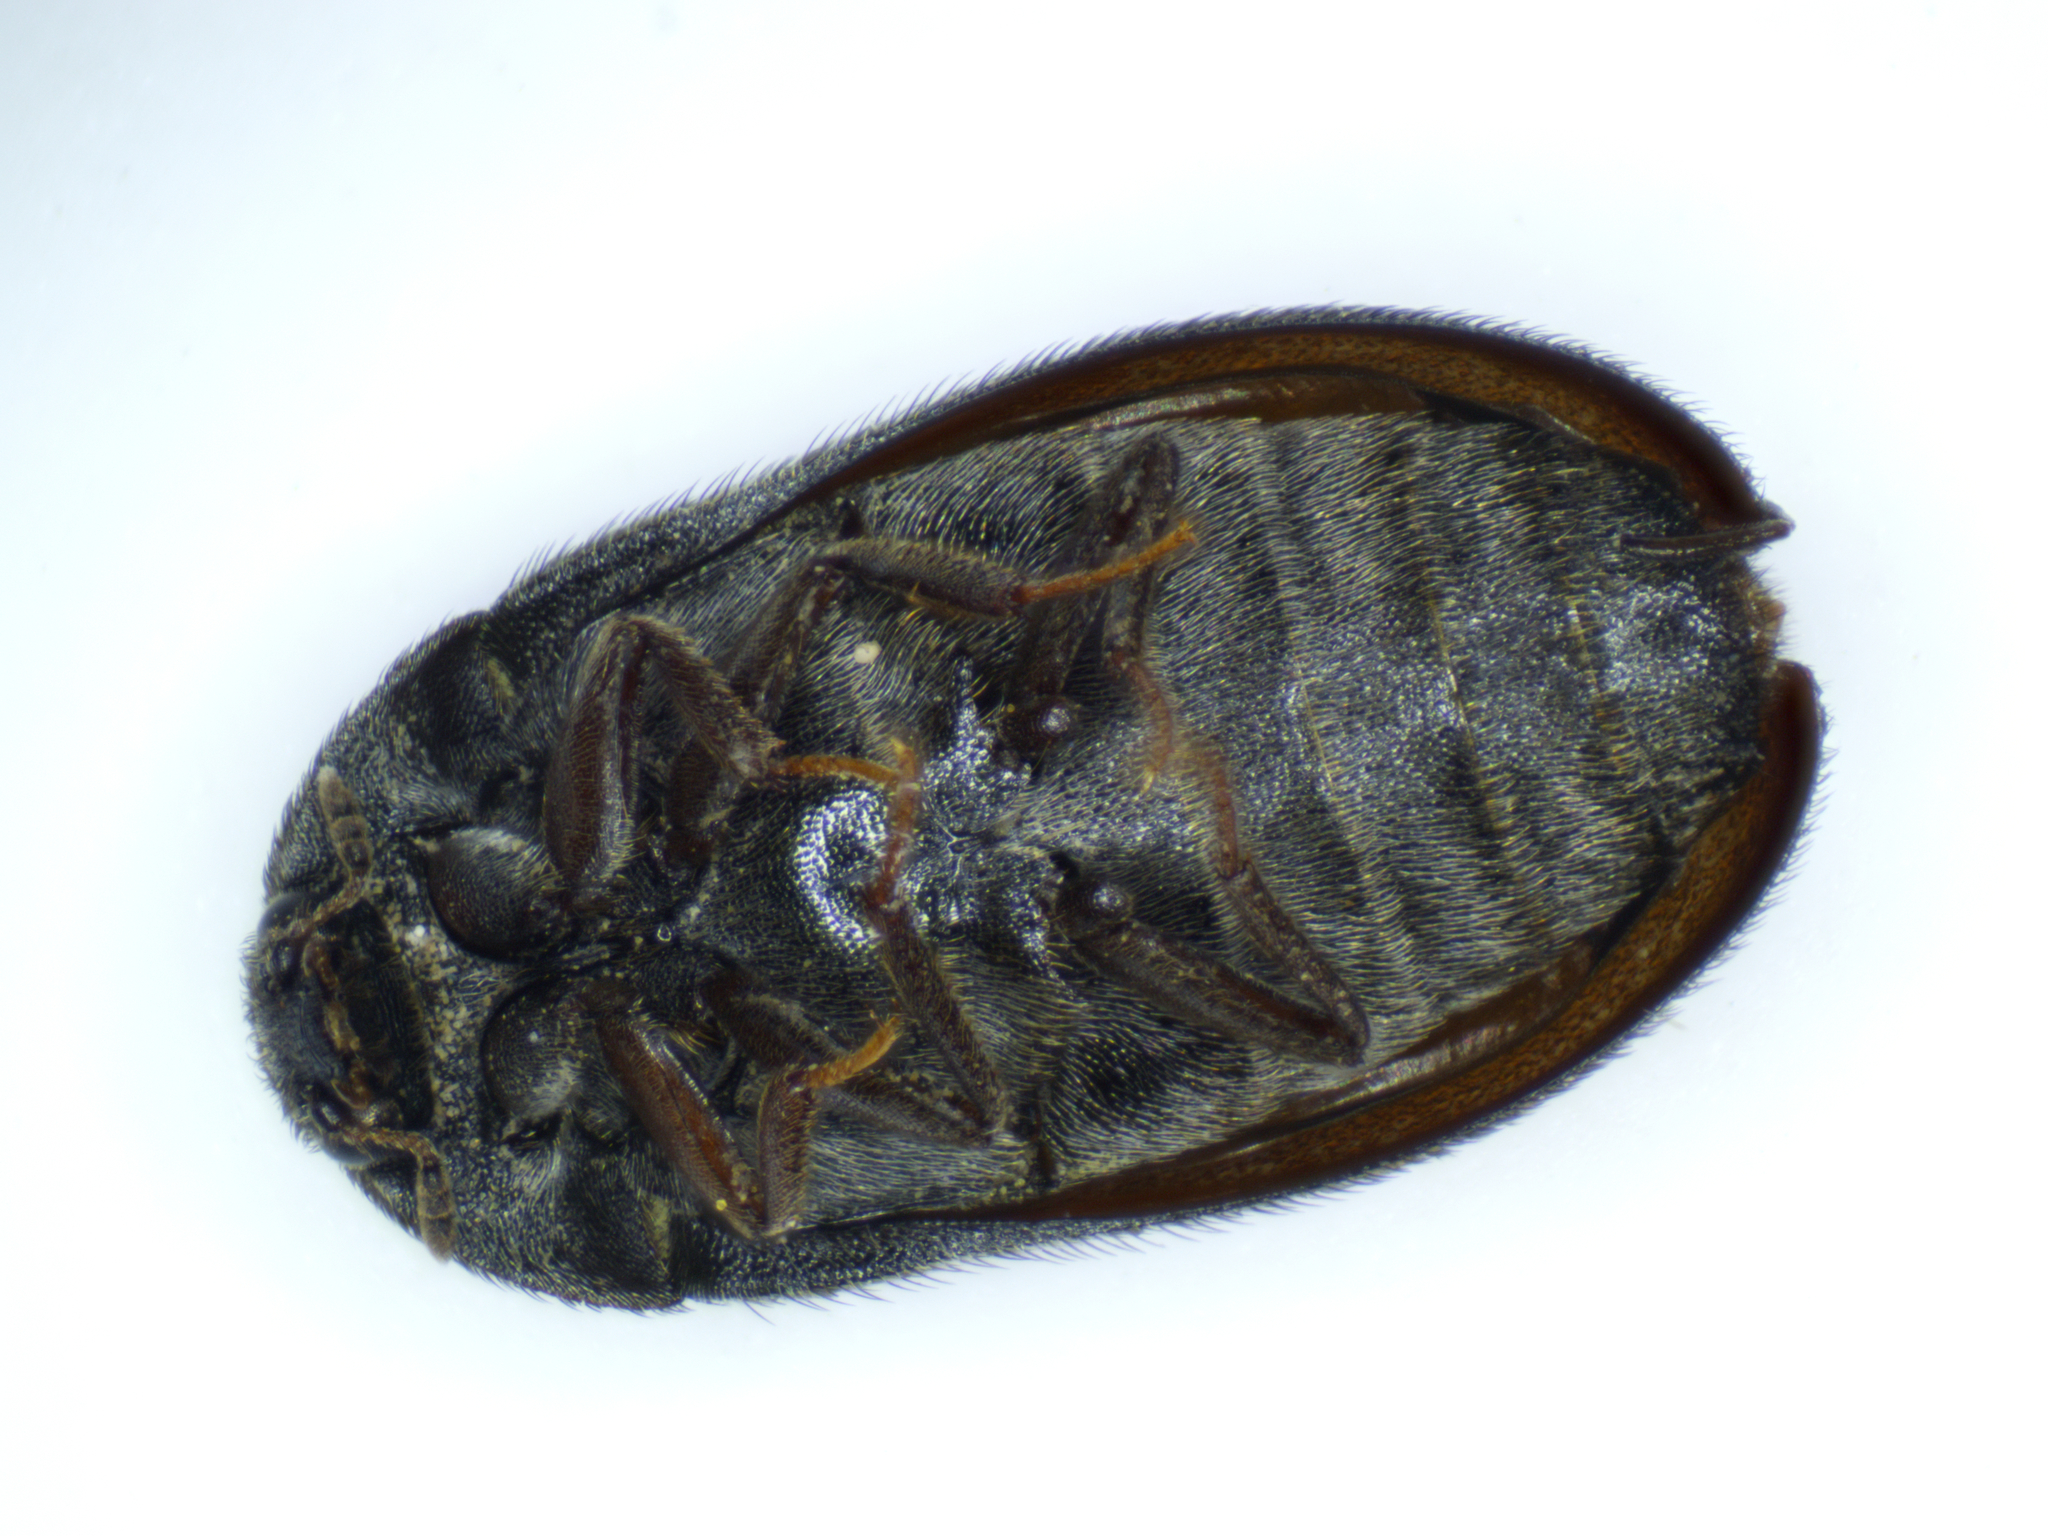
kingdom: Animalia
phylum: Arthropoda
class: Insecta
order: Coleoptera
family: Dermestidae
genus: Attagenus
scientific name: Attagenus pellio
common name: Two-spotted carpet beetle
